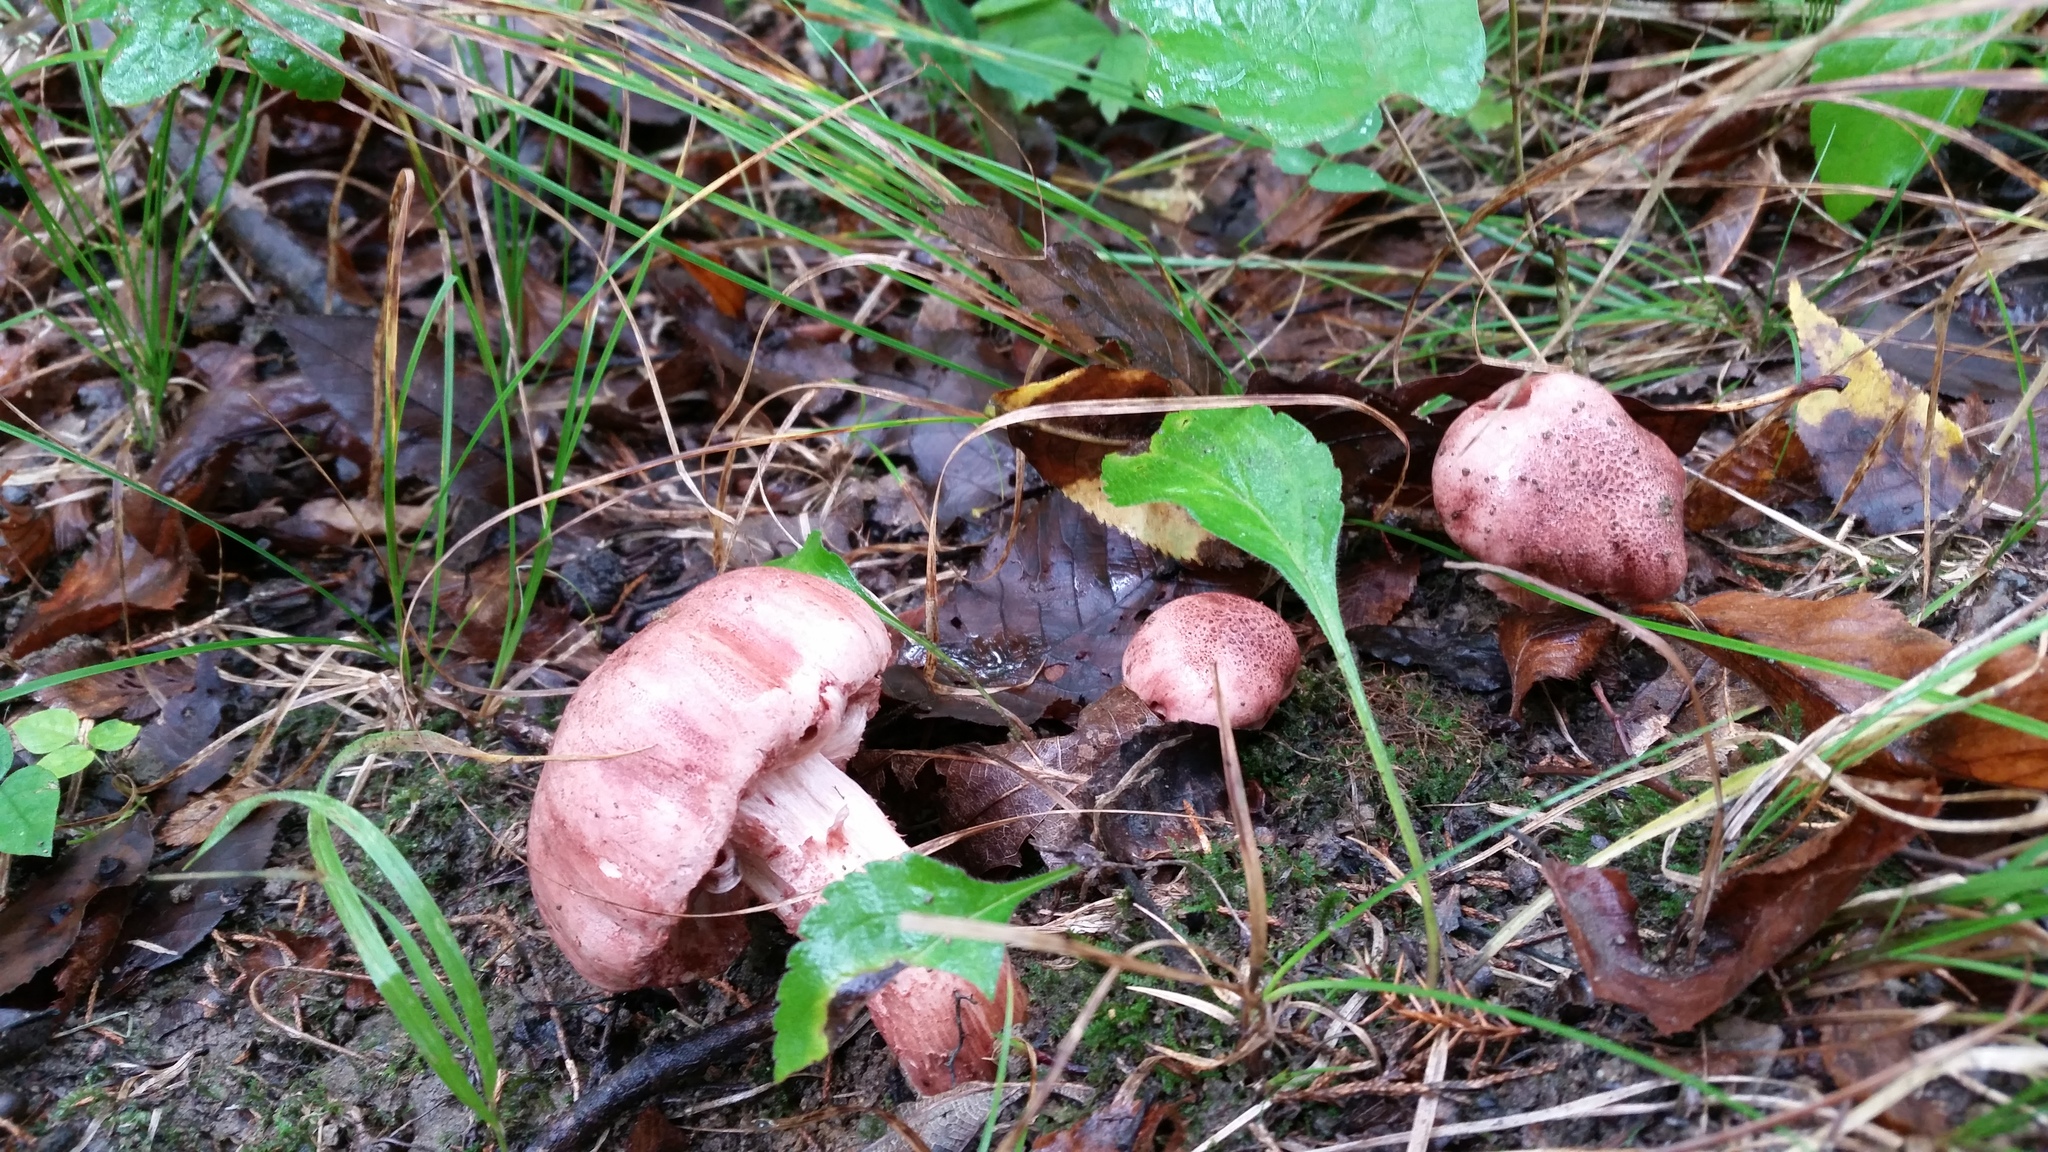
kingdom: Fungi
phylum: Basidiomycota
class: Agaricomycetes
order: Agaricales
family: Hygrophoraceae
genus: Hygrophorus
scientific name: Hygrophorus russula
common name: Pinkmottle woodwax
